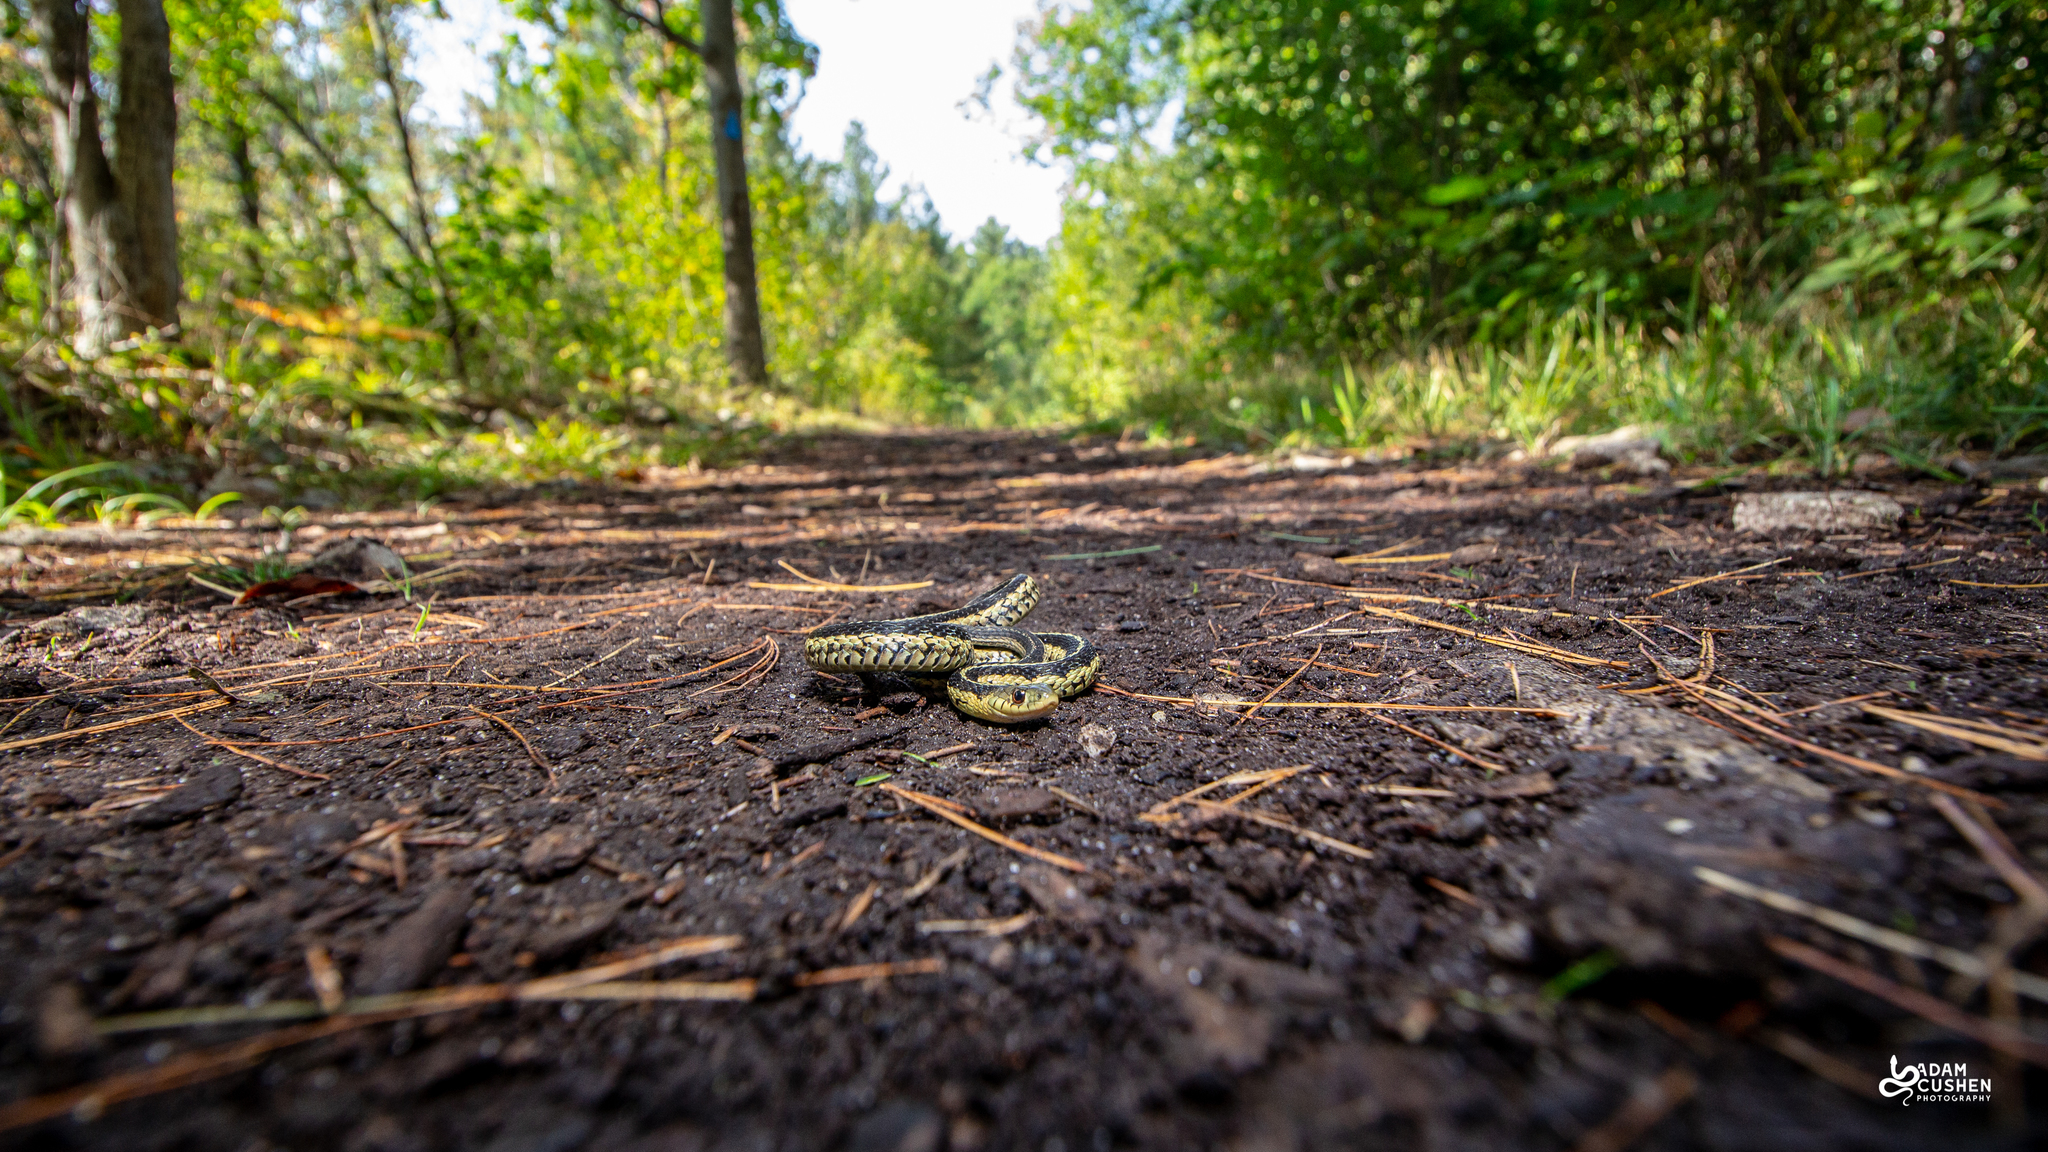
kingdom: Animalia
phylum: Chordata
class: Squamata
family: Colubridae
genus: Thamnophis
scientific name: Thamnophis sirtalis
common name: Common garter snake
